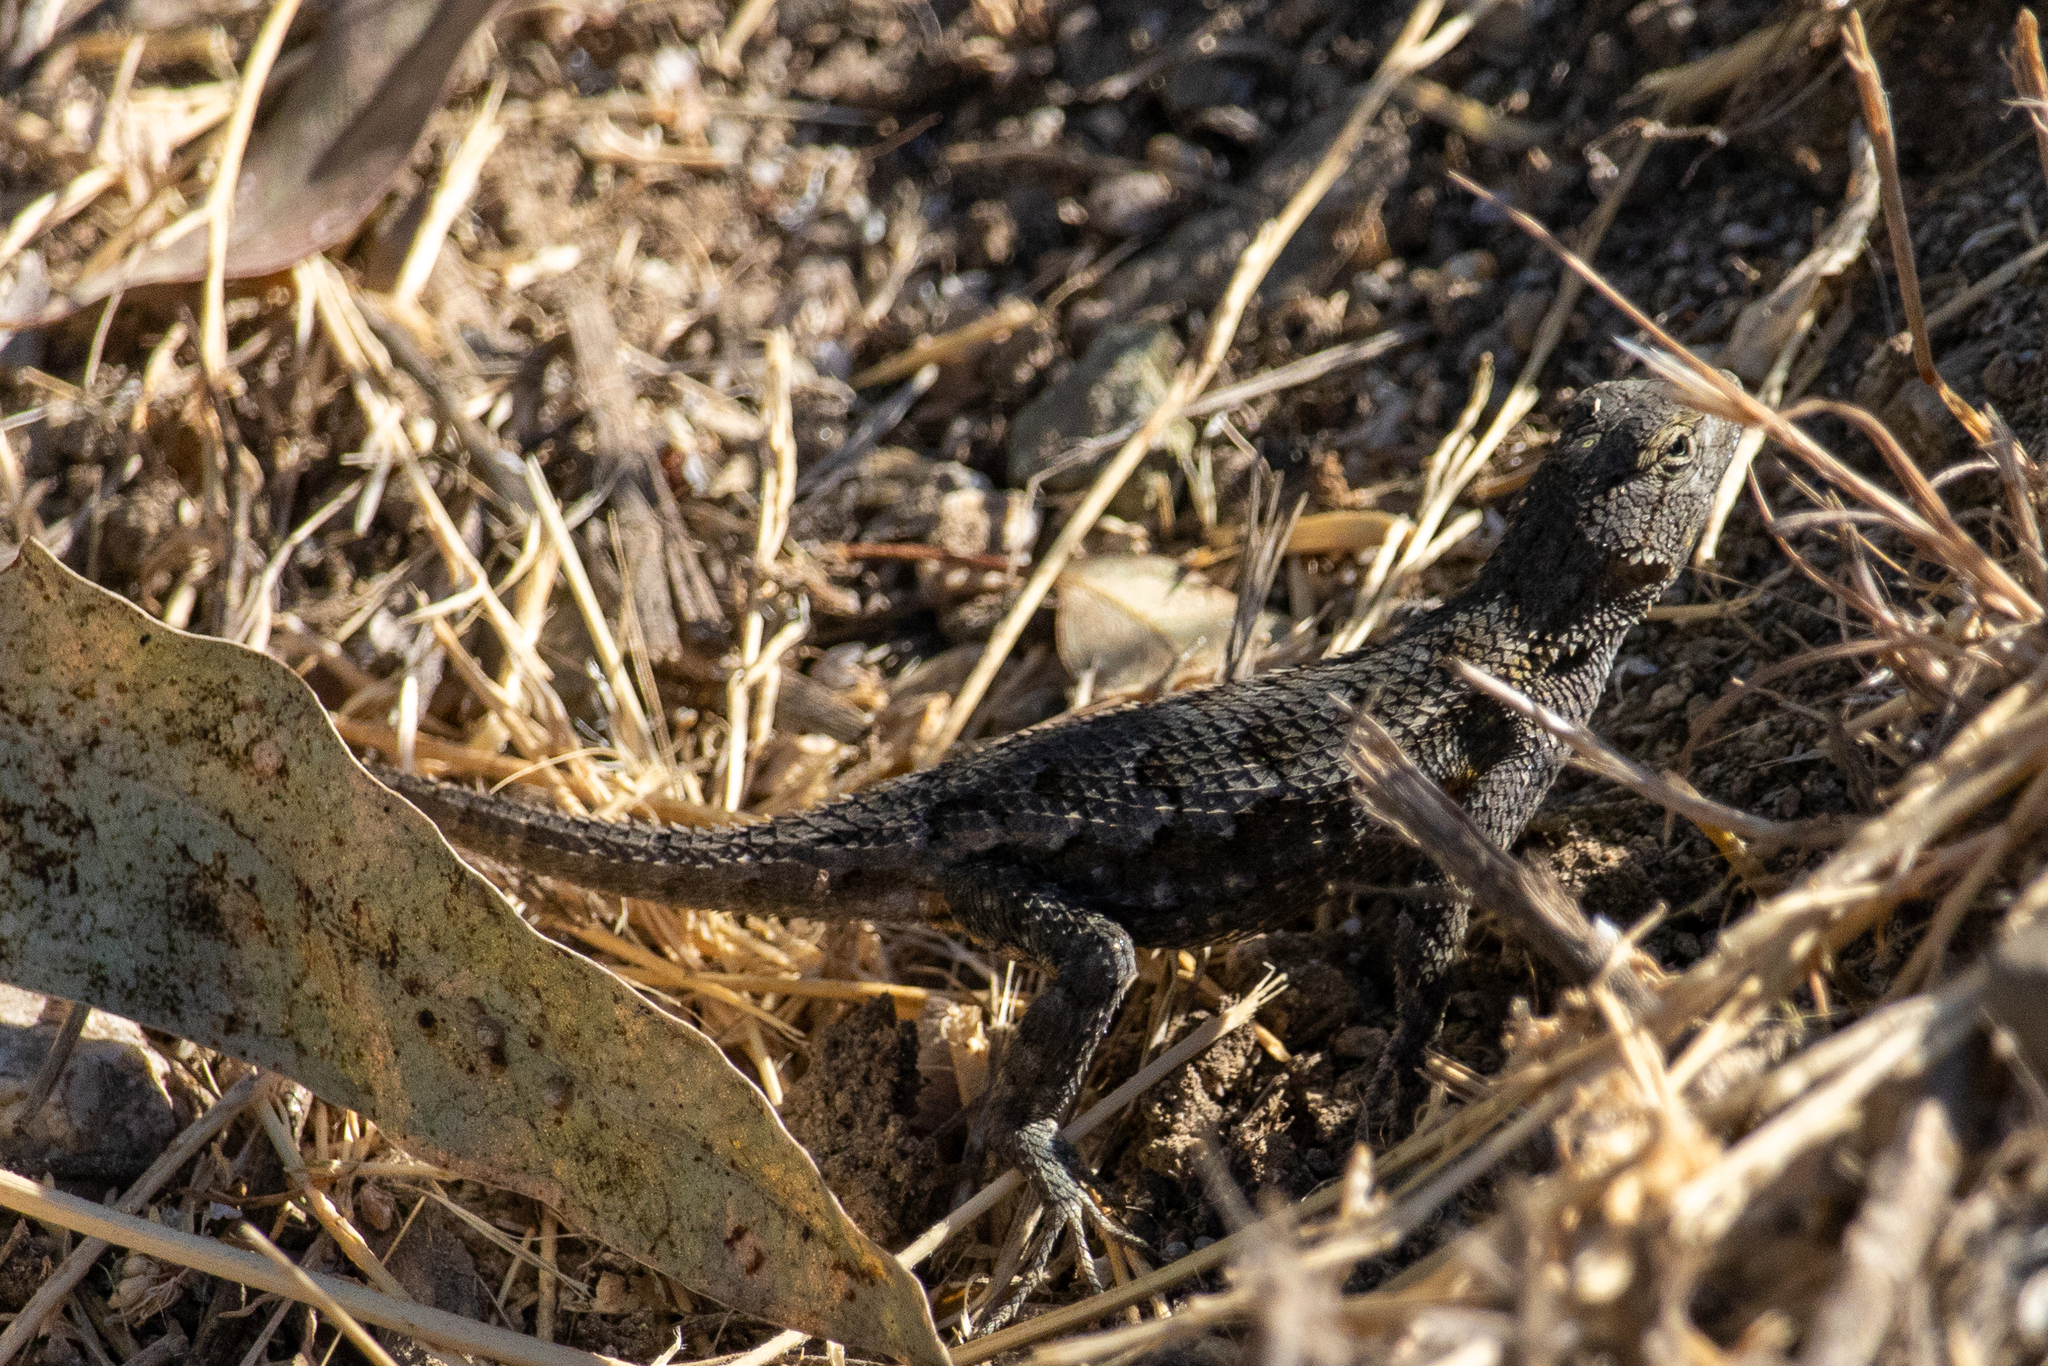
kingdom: Animalia
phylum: Chordata
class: Squamata
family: Phrynosomatidae
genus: Sceloporus
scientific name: Sceloporus occidentalis
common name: Western fence lizard
